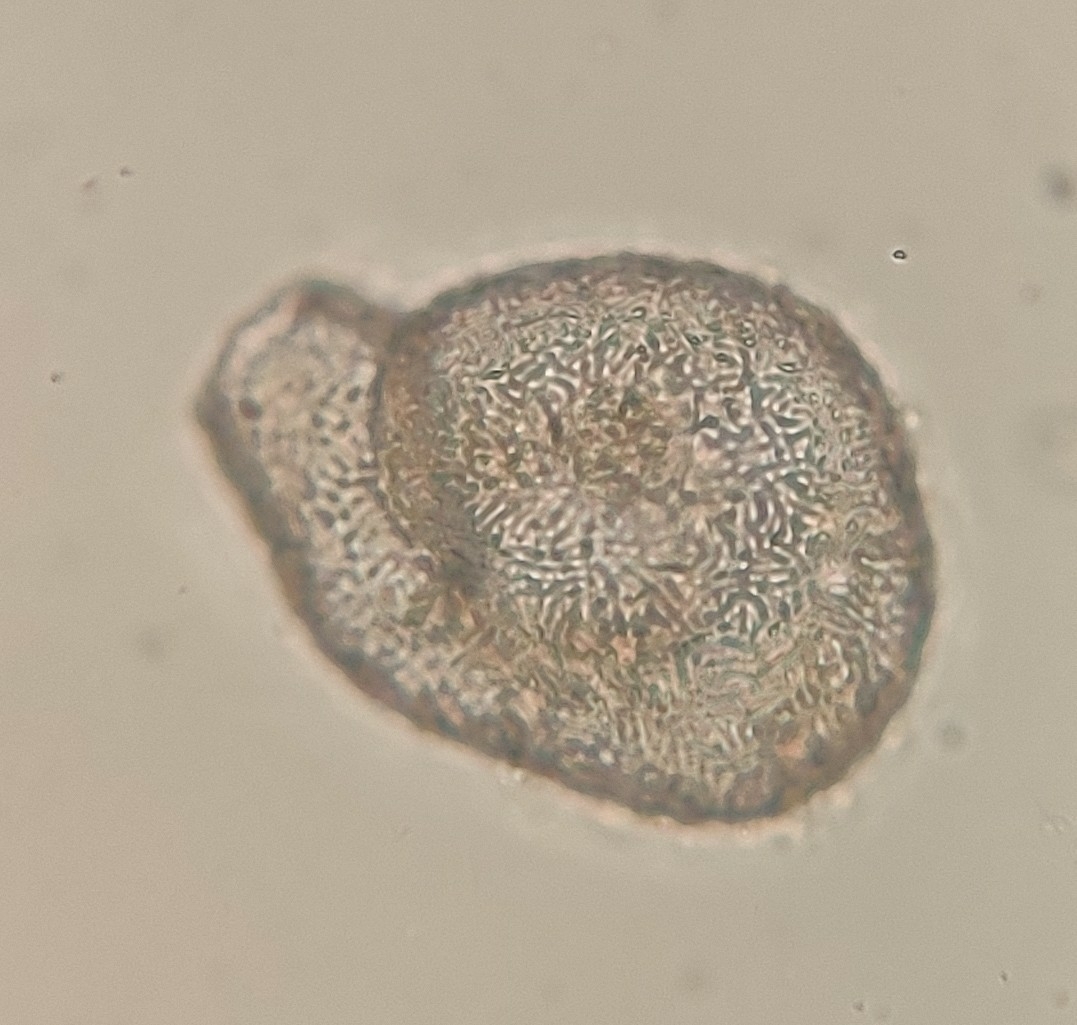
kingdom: Protozoa
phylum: Amoebozoa
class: Lobosa
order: Arcellinida
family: Lesquereusiidae
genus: Lesquereusia
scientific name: Lesquereusia spiralis
